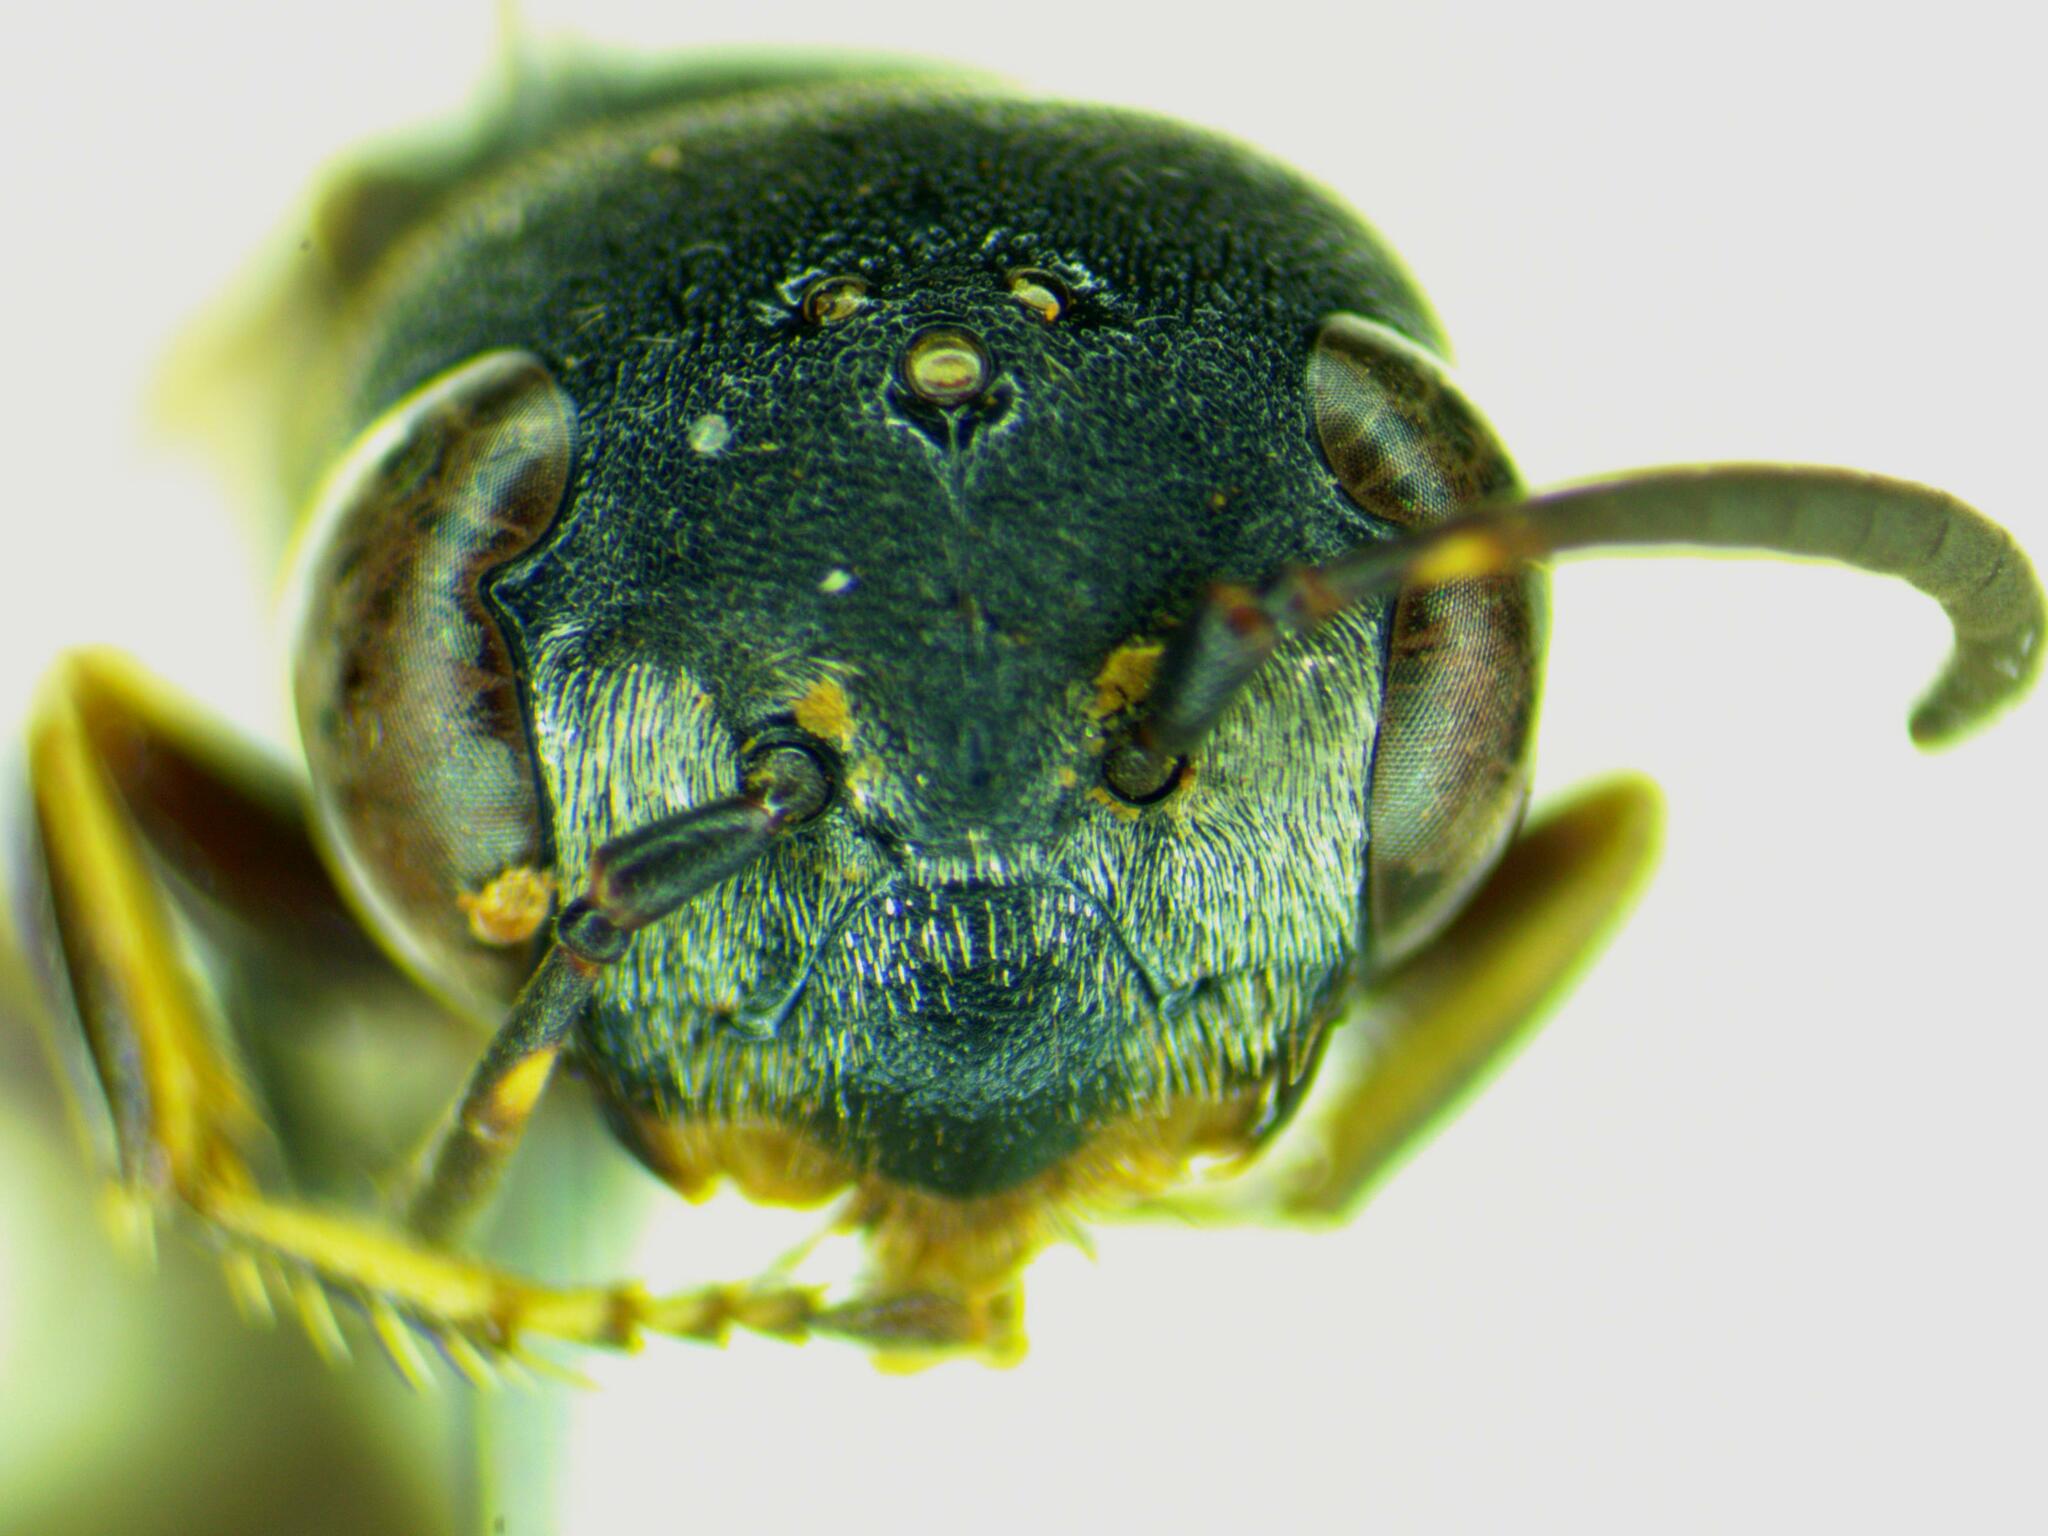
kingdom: Animalia
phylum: Arthropoda
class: Insecta
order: Hymenoptera
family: Crabronidae
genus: Trachypus
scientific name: Trachypus patagonensis
